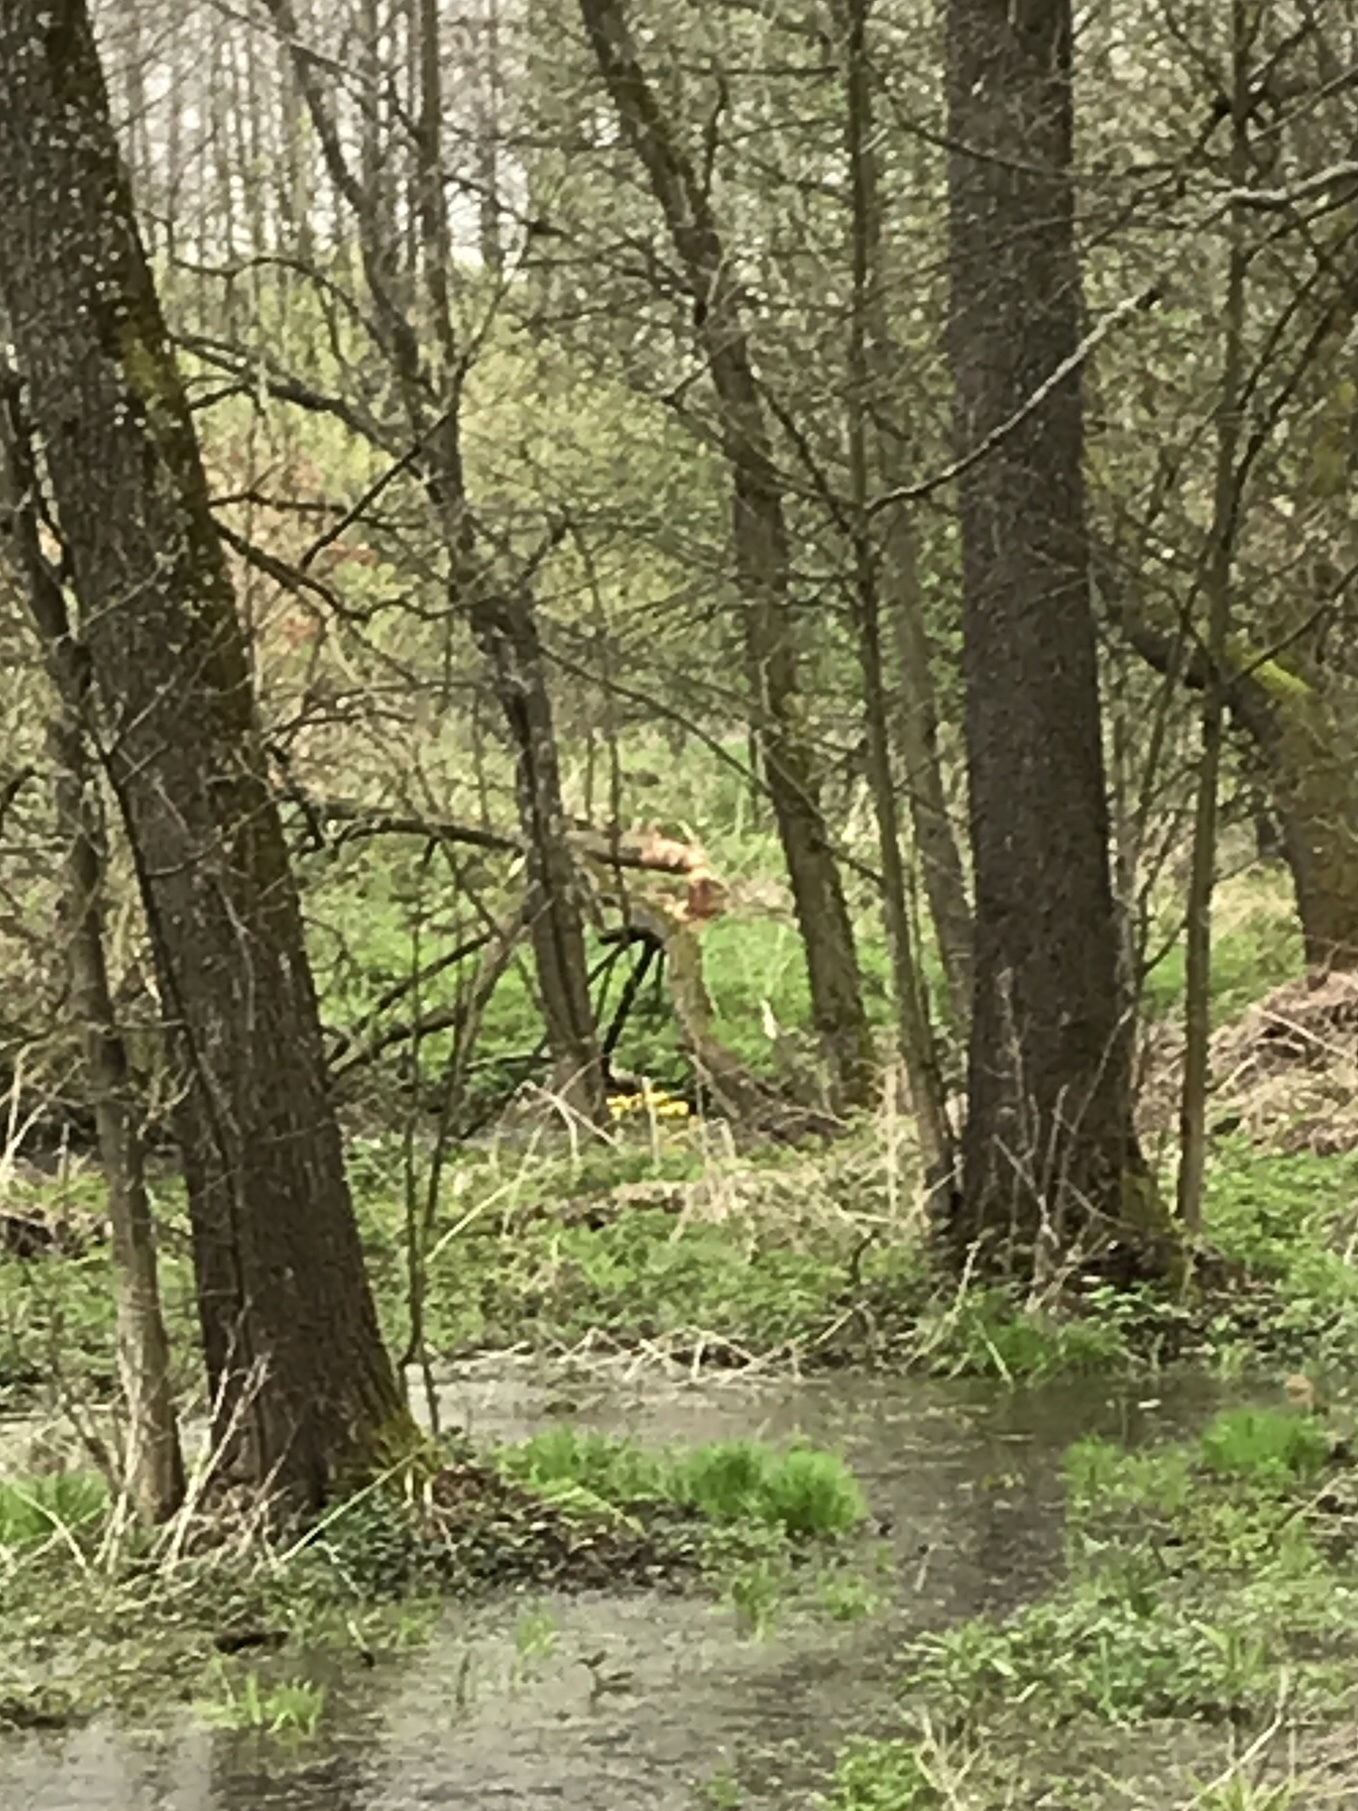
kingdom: Animalia
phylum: Chordata
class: Mammalia
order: Rodentia
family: Castoridae
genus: Castor
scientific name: Castor fiber
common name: Eurasian beaver
